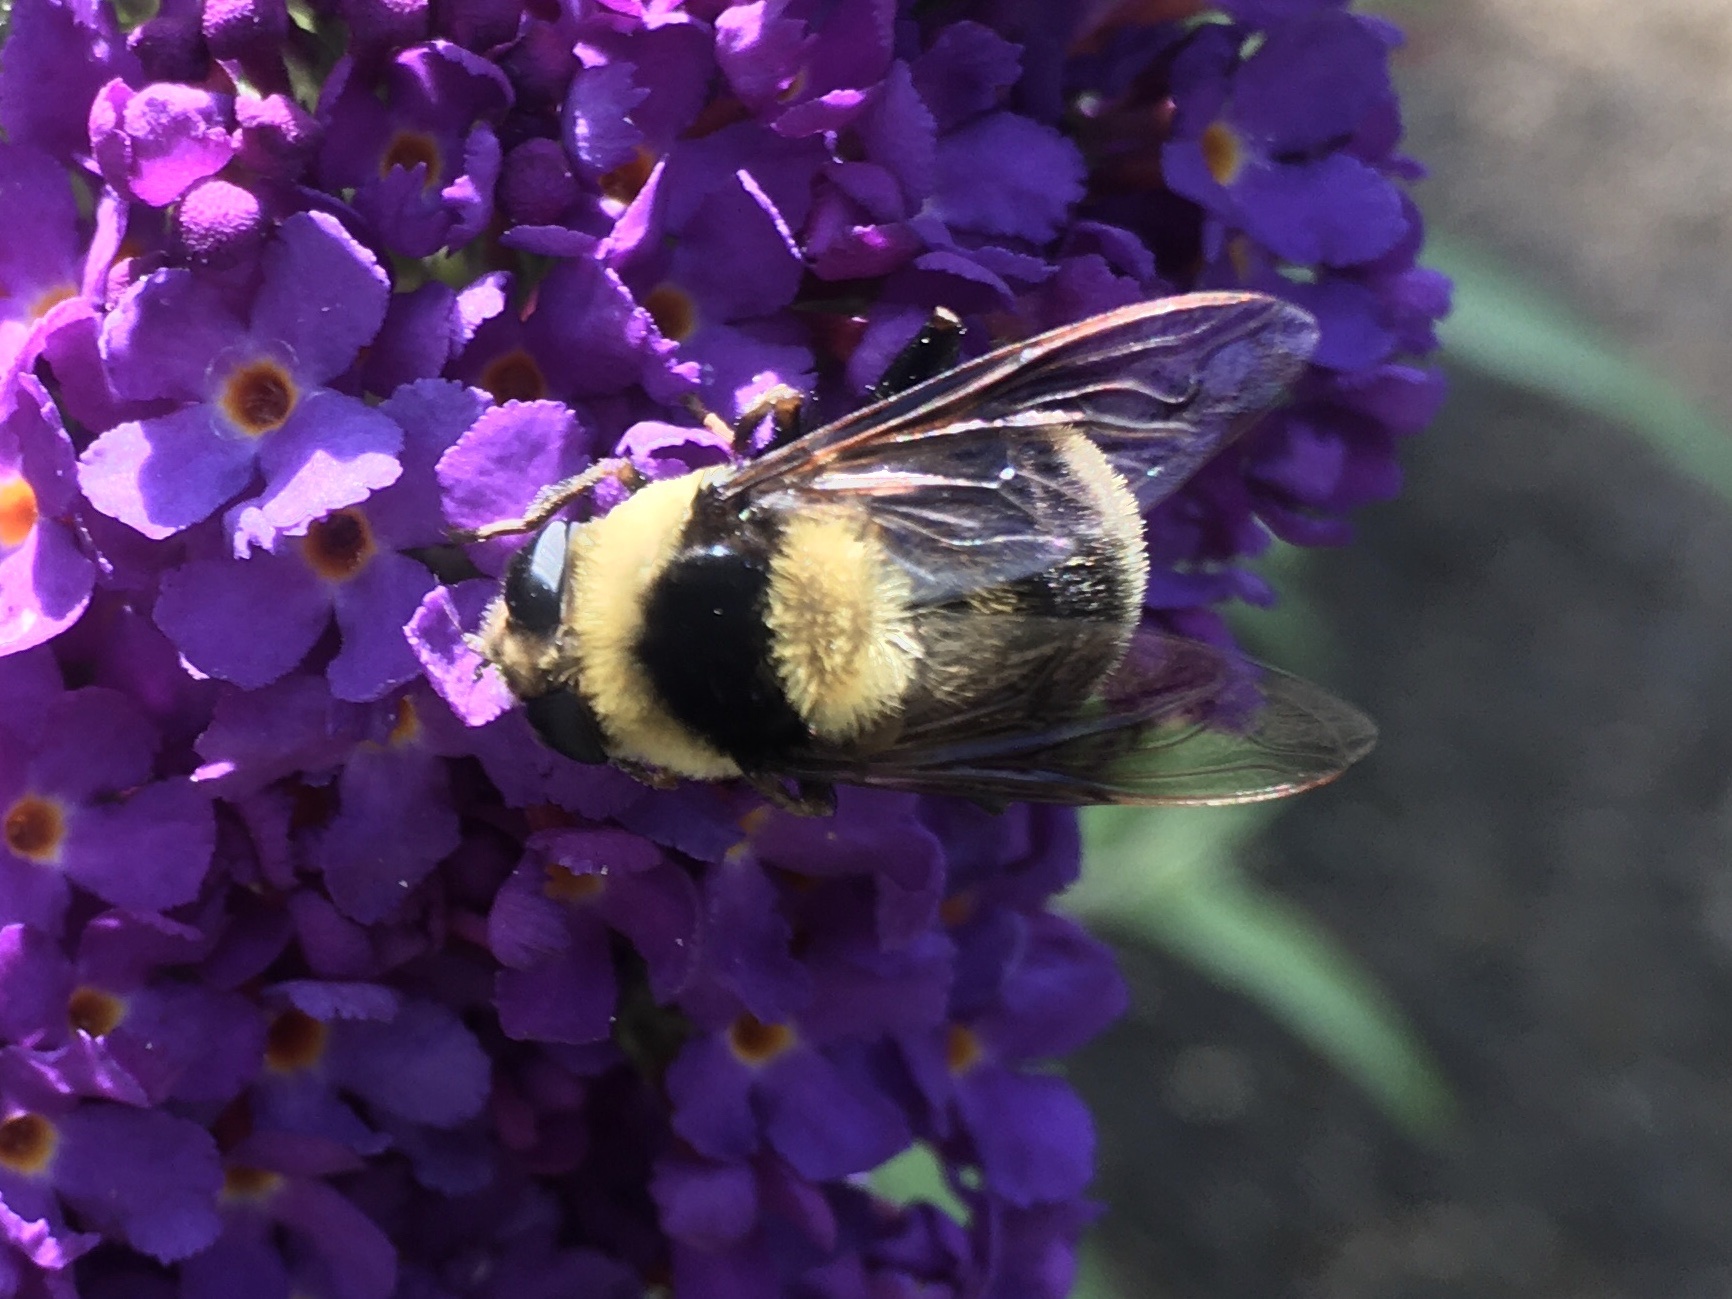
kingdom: Animalia
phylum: Arthropoda
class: Insecta
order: Diptera
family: Syrphidae
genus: Eristalis
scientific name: Eristalis flavipes
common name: Orange-legged drone fly
